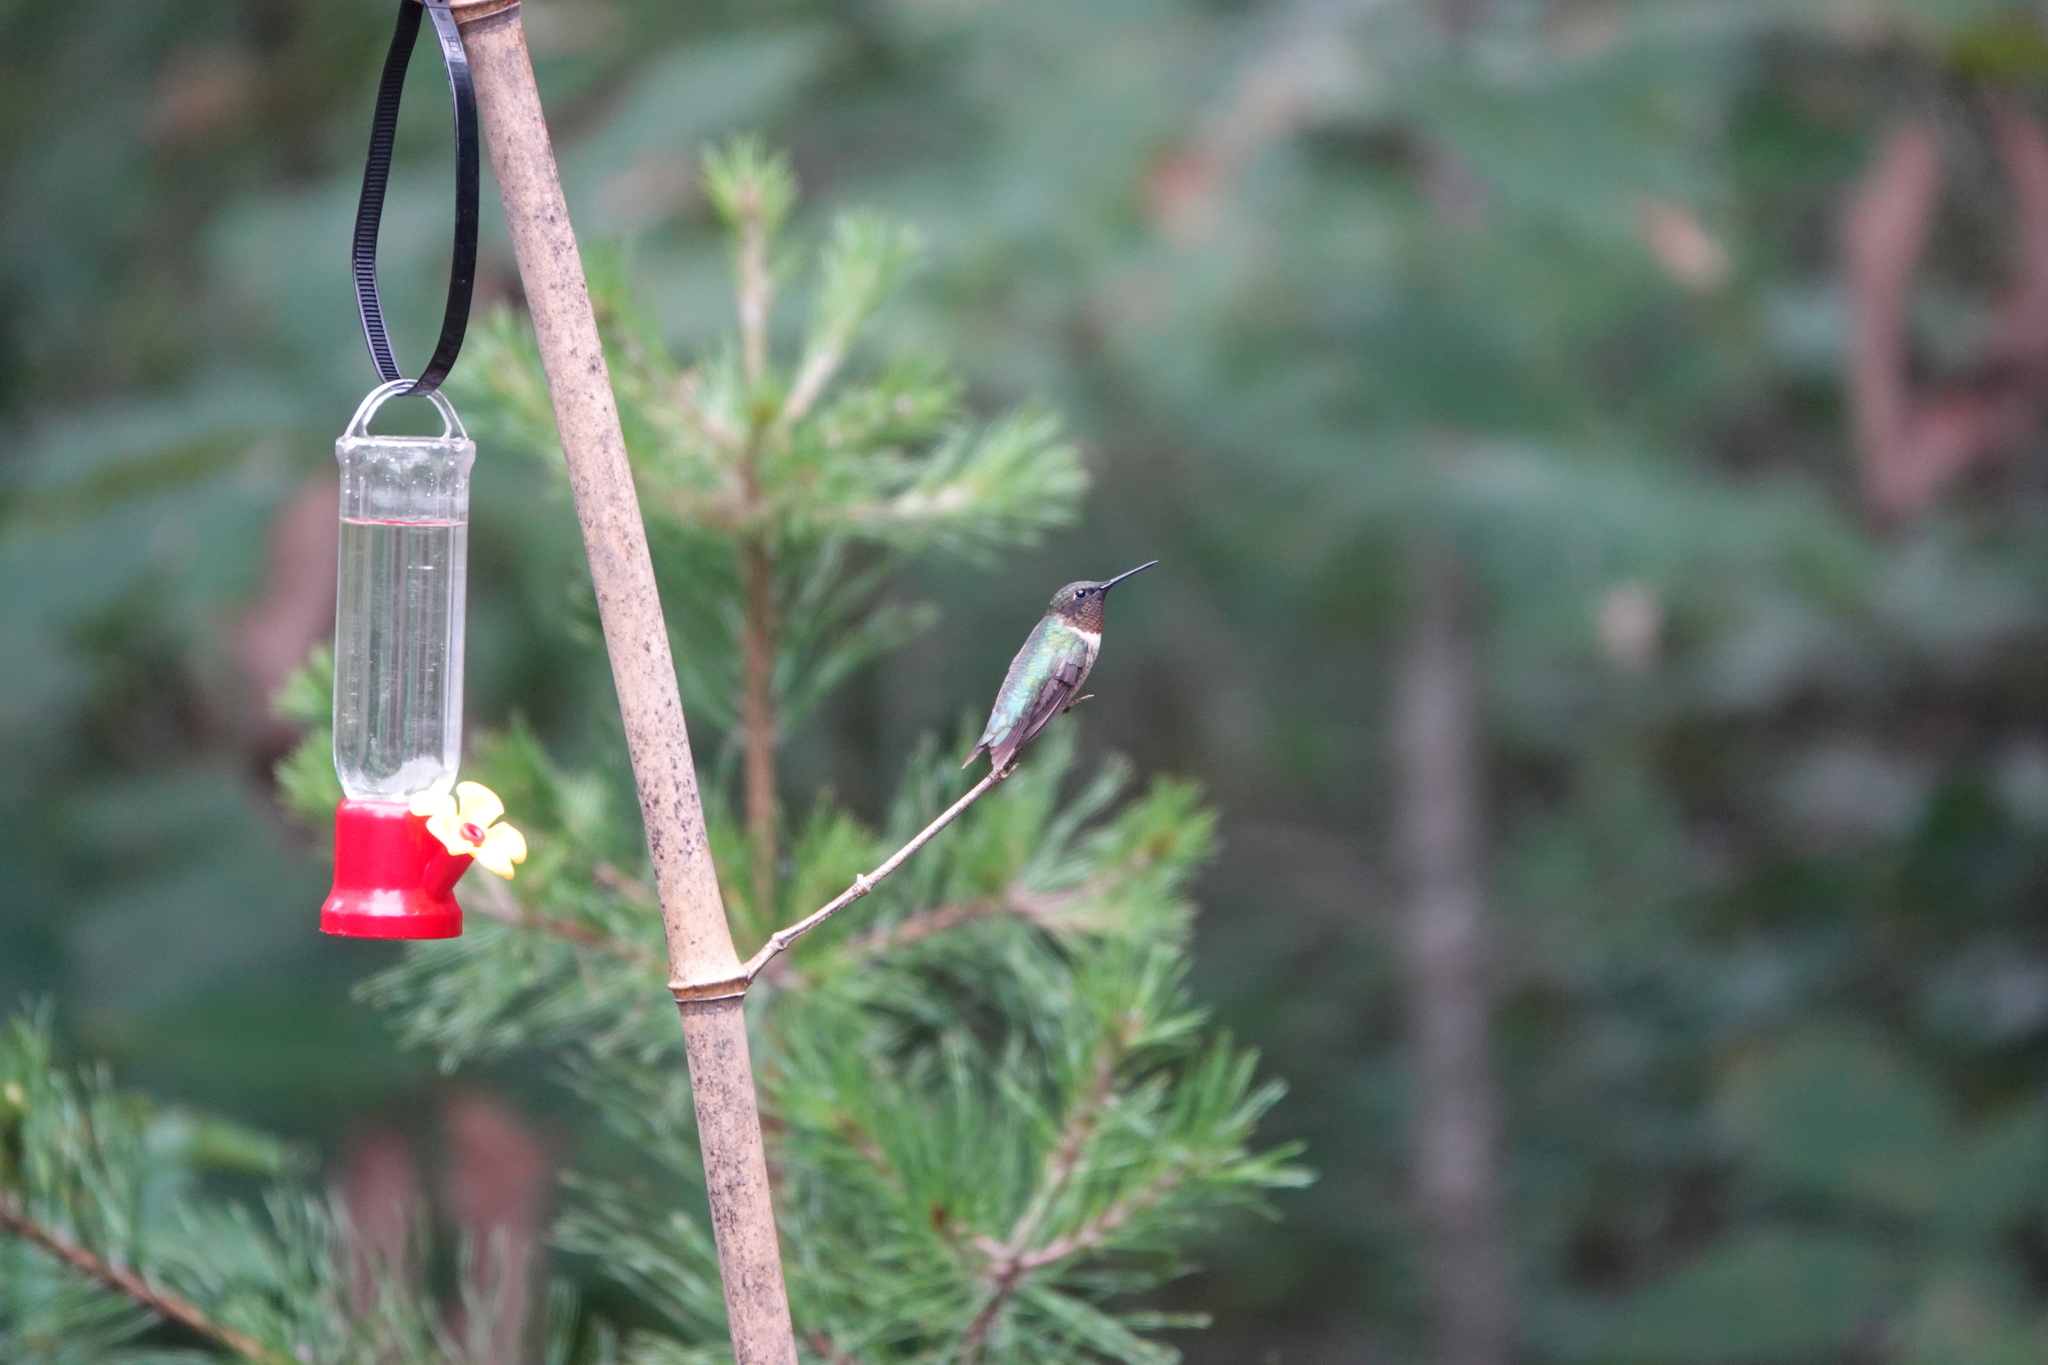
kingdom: Animalia
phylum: Chordata
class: Aves
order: Apodiformes
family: Trochilidae
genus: Archilochus
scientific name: Archilochus colubris
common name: Ruby-throated hummingbird
